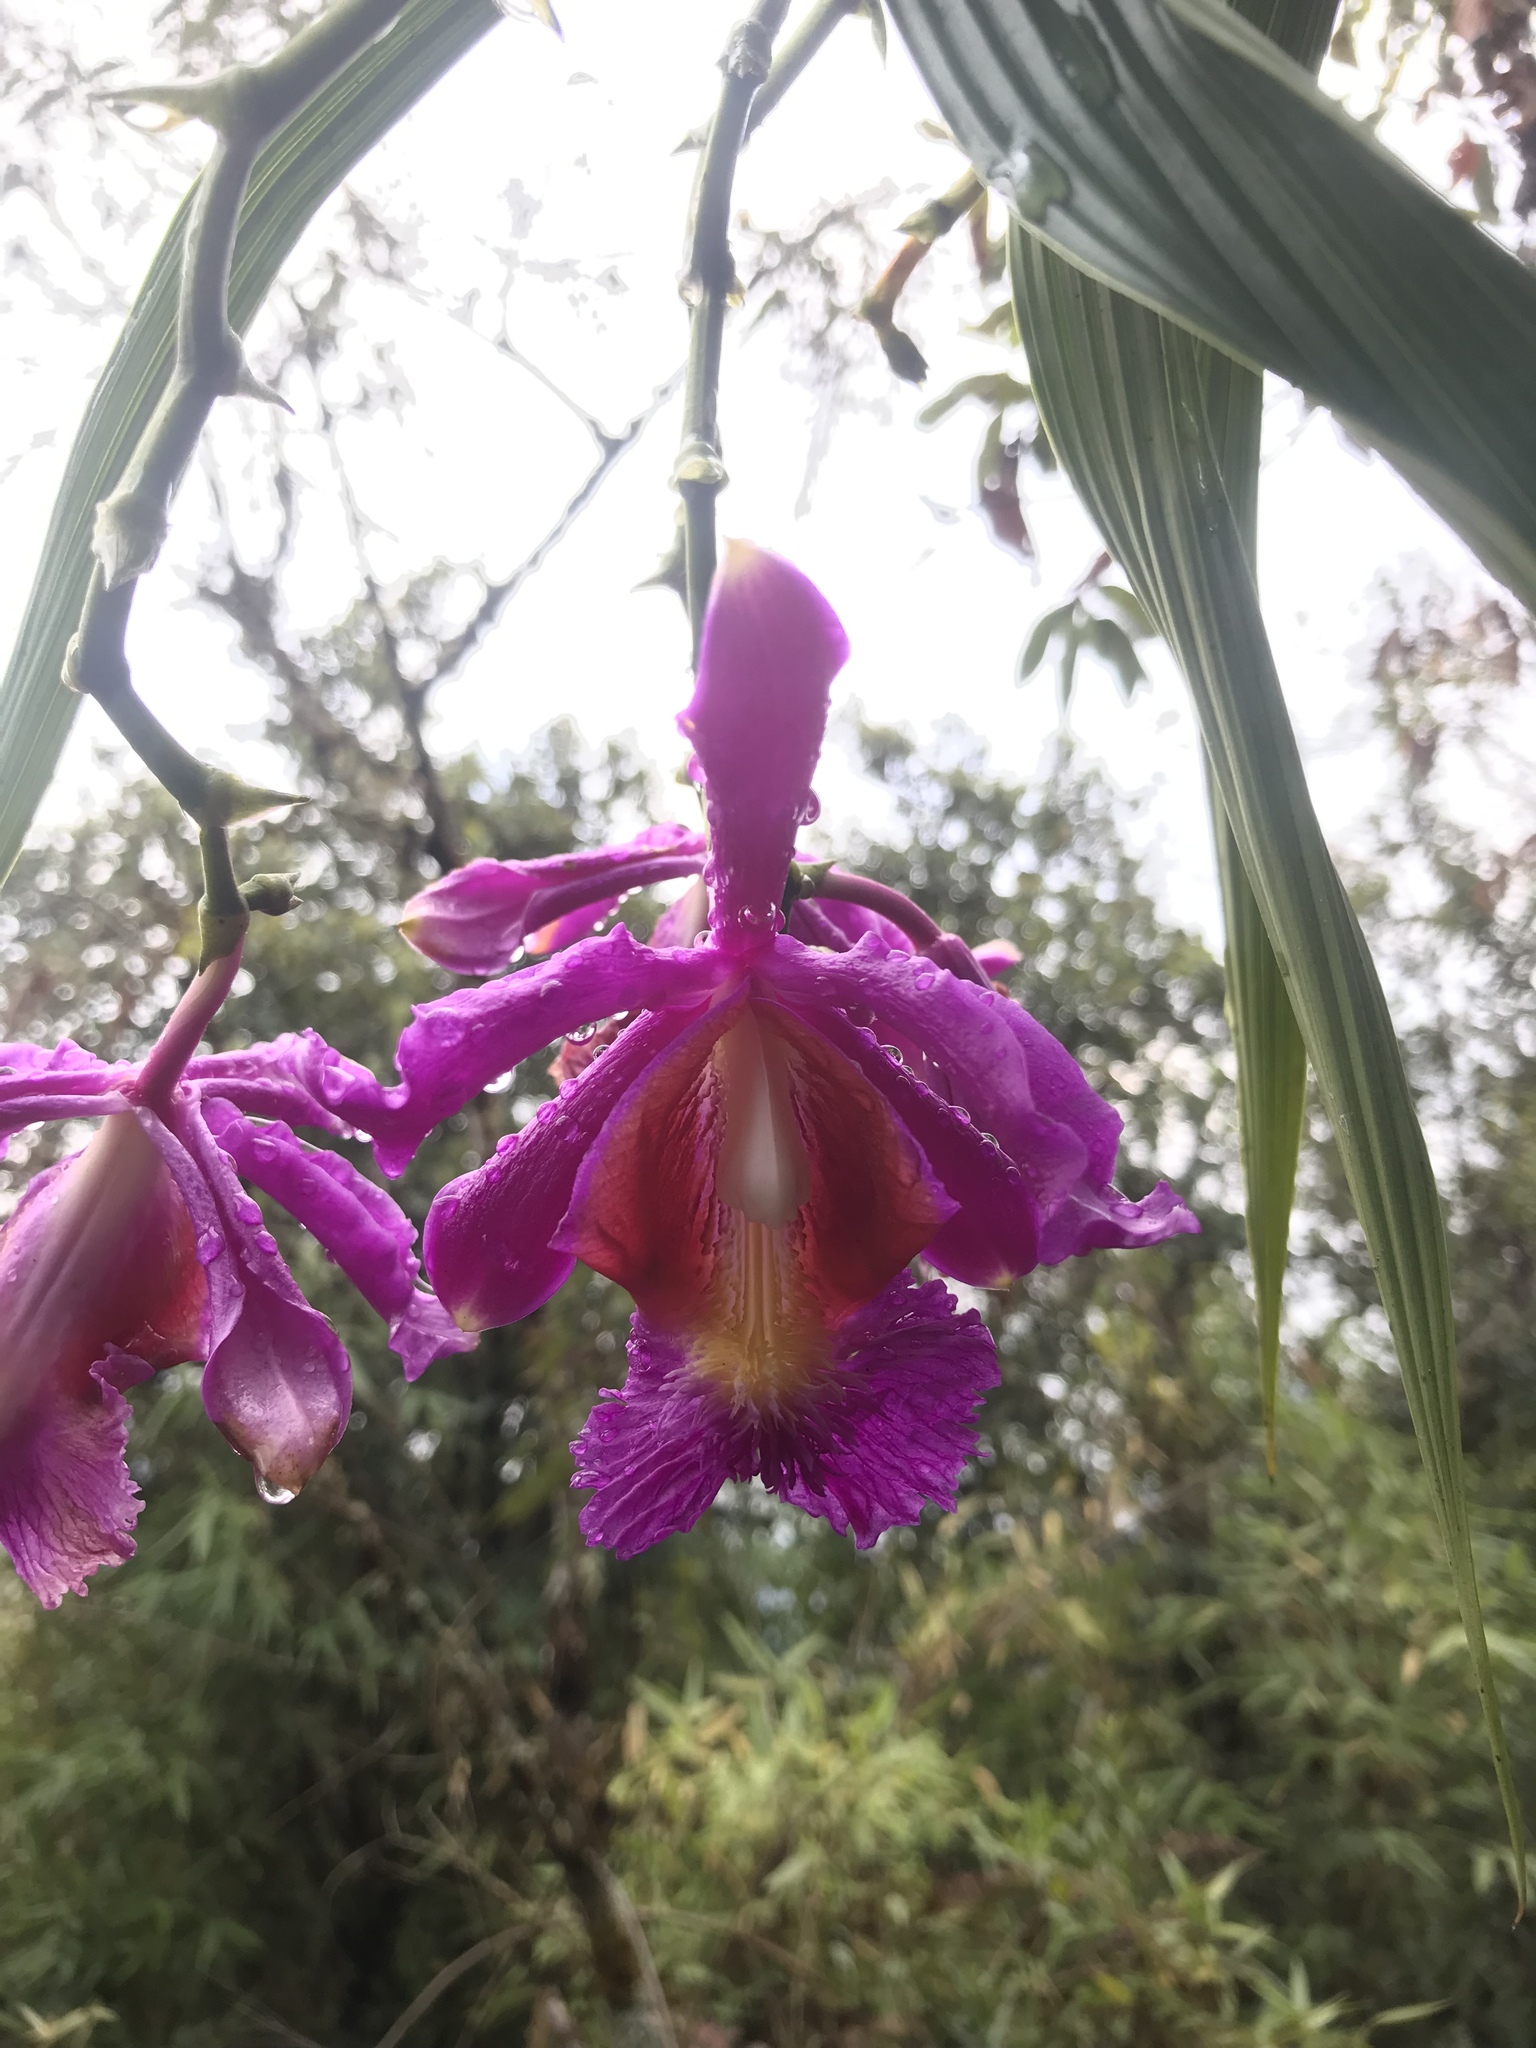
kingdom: Plantae
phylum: Tracheophyta
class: Liliopsida
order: Asparagales
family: Orchidaceae
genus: Sobralia
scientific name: Sobralia dichotoma
